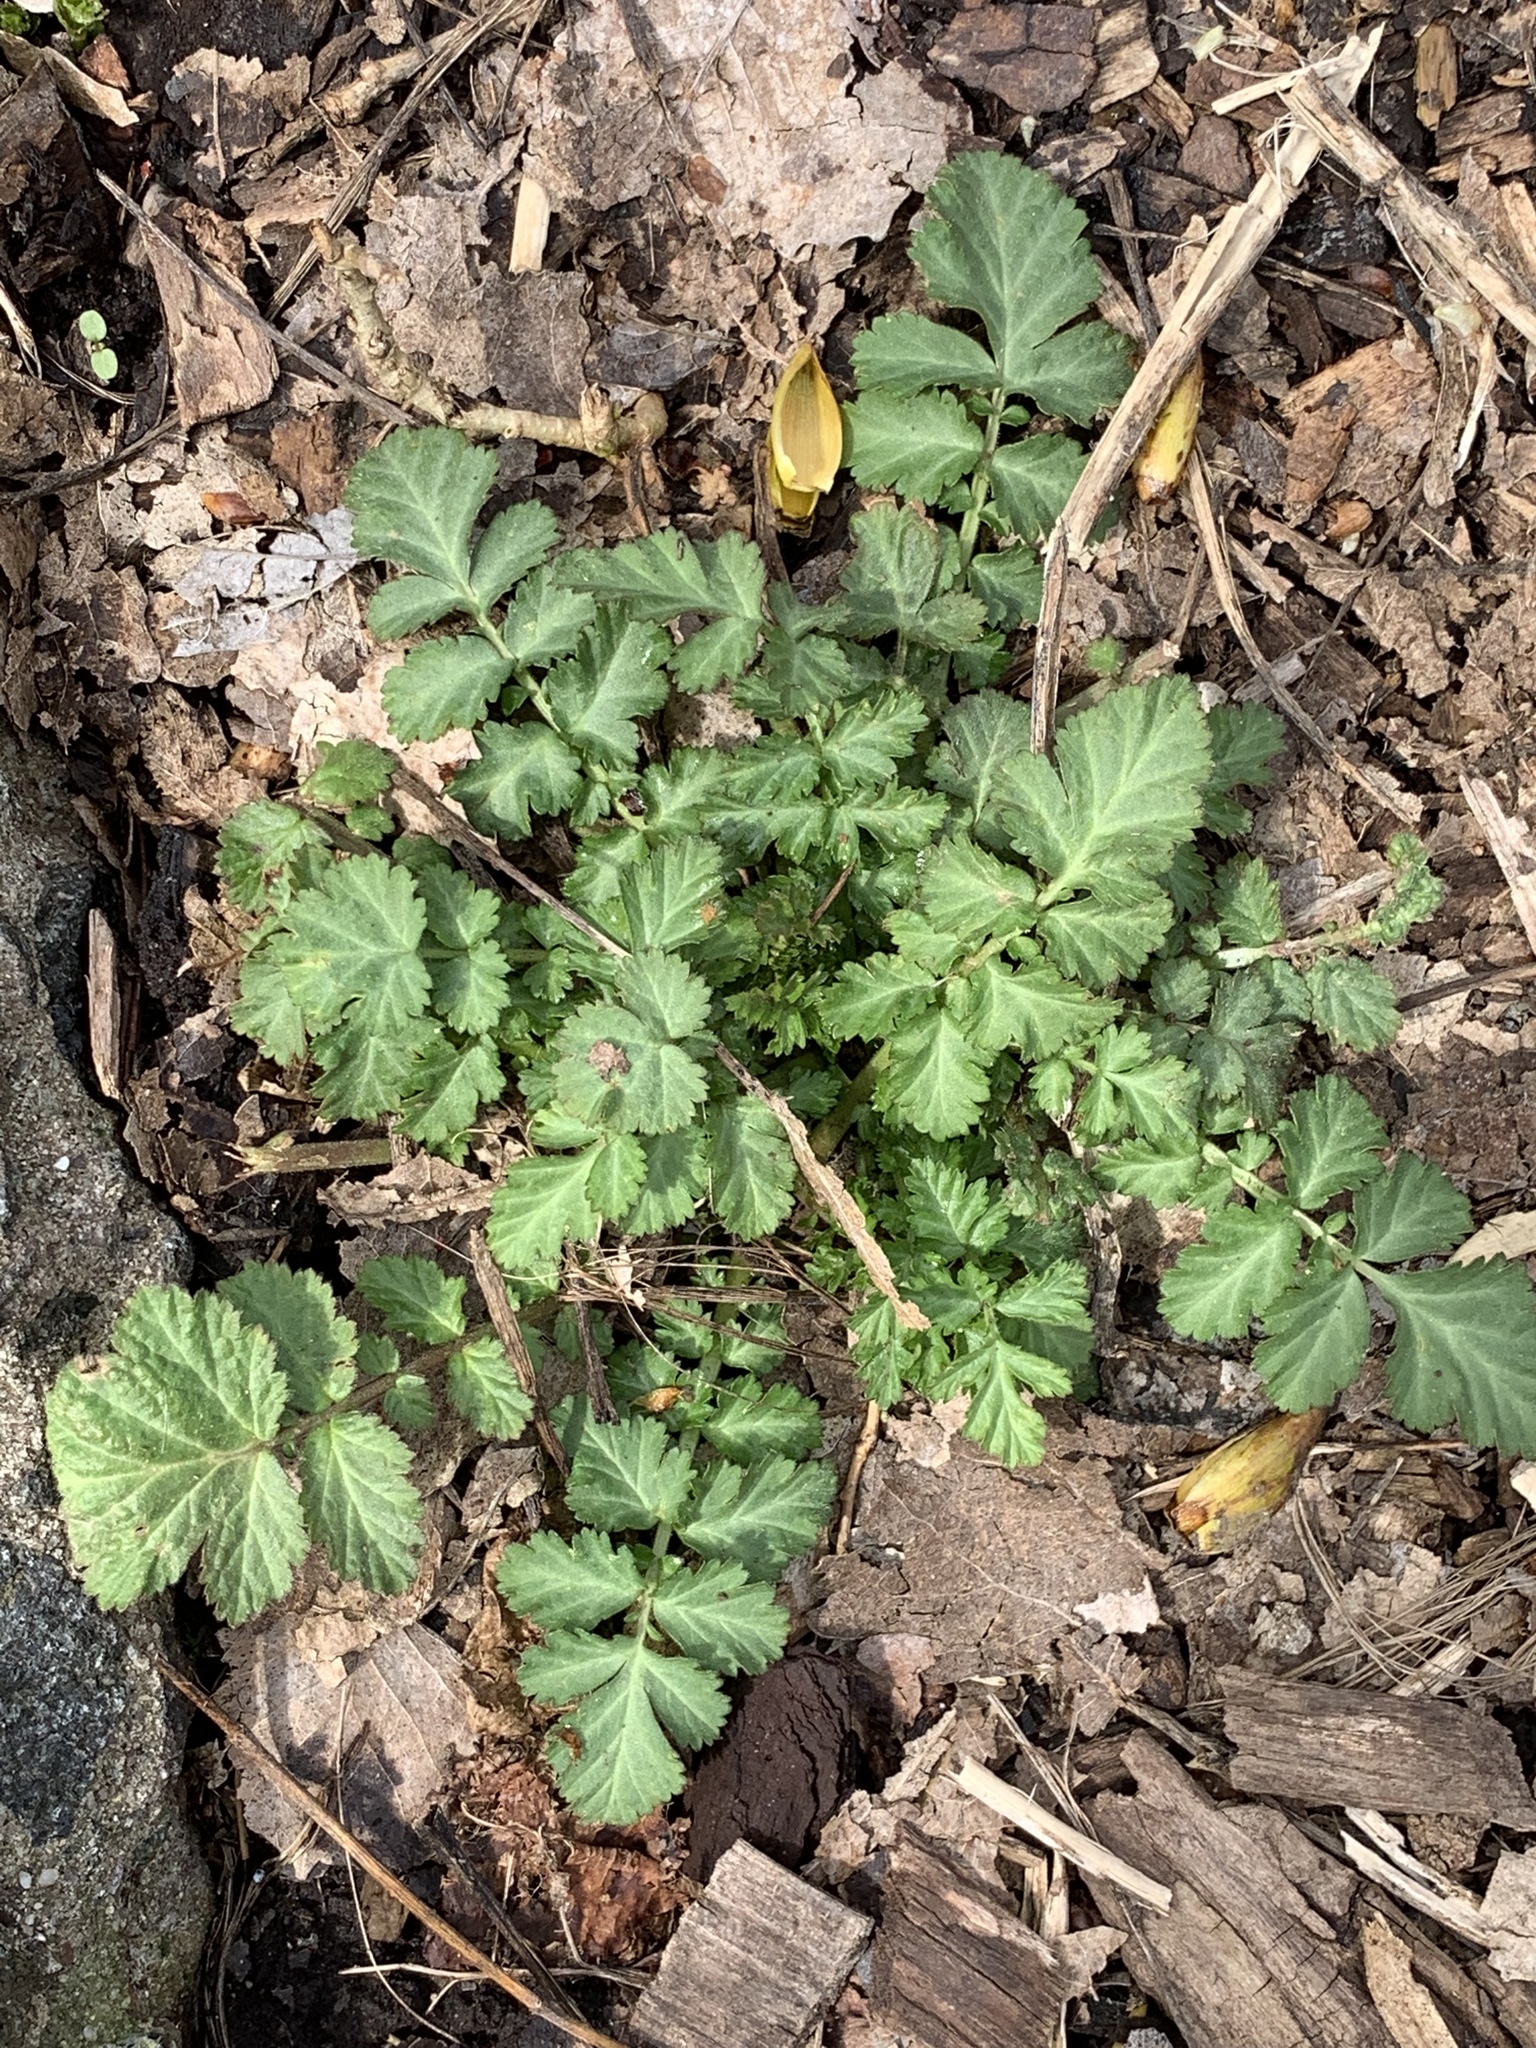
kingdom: Plantae
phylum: Tracheophyta
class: Magnoliopsida
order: Rosales
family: Rosaceae
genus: Geum
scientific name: Geum canadense
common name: White avens
